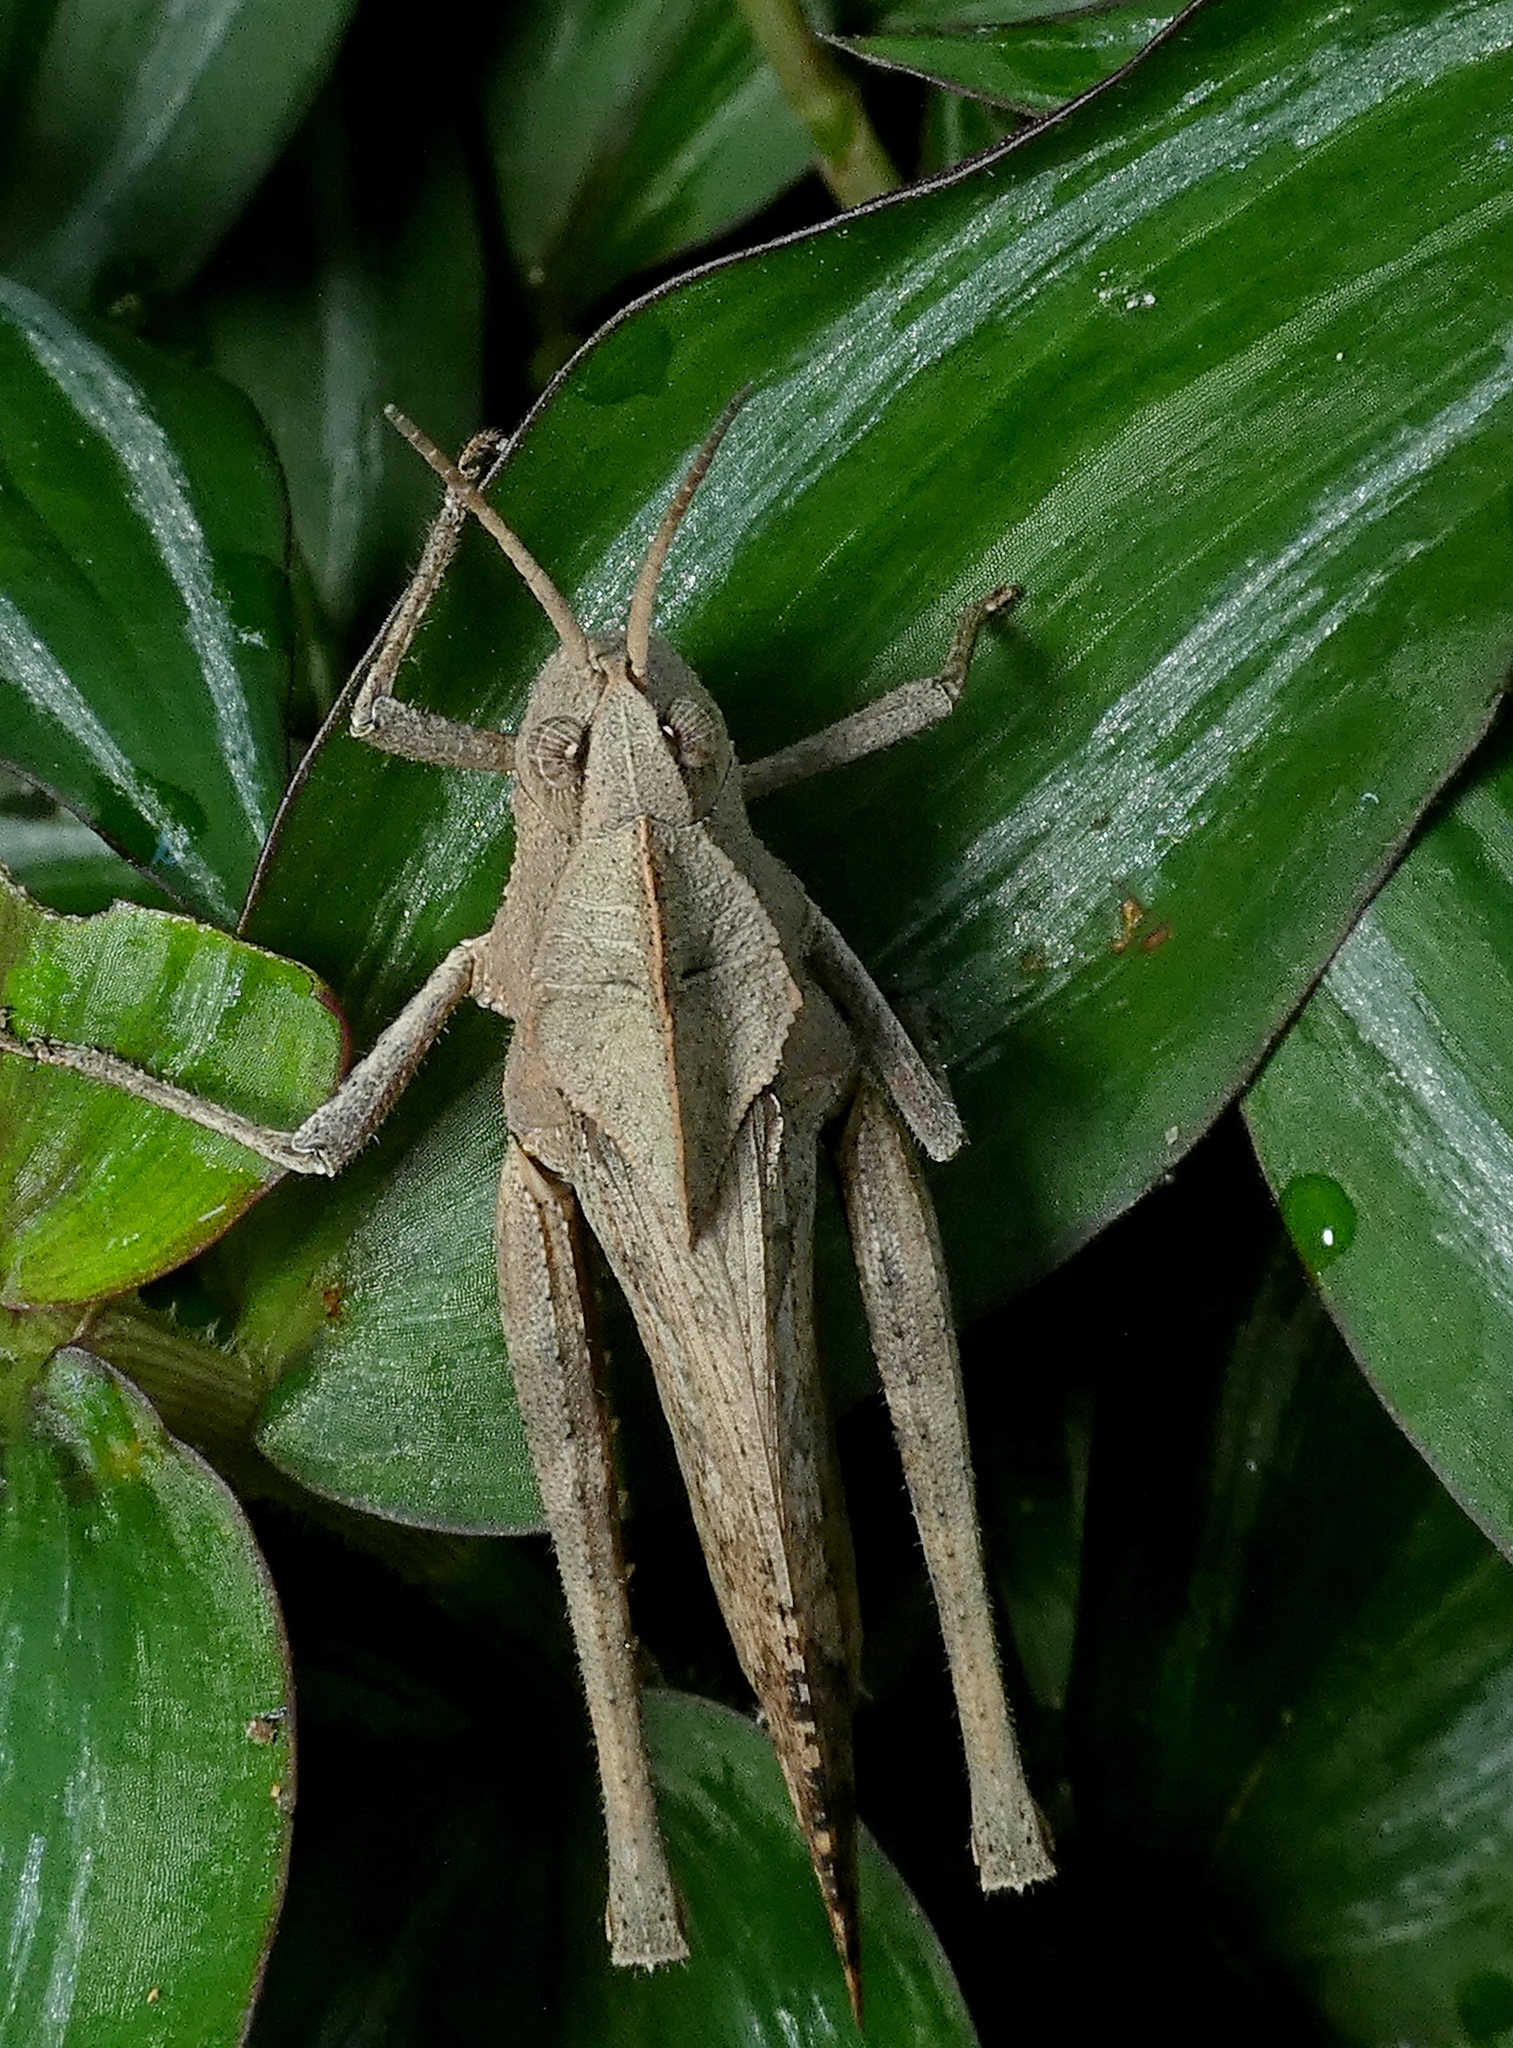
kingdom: Animalia
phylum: Arthropoda
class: Insecta
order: Orthoptera
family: Romaleidae
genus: Xyleus
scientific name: Xyleus discoideus
